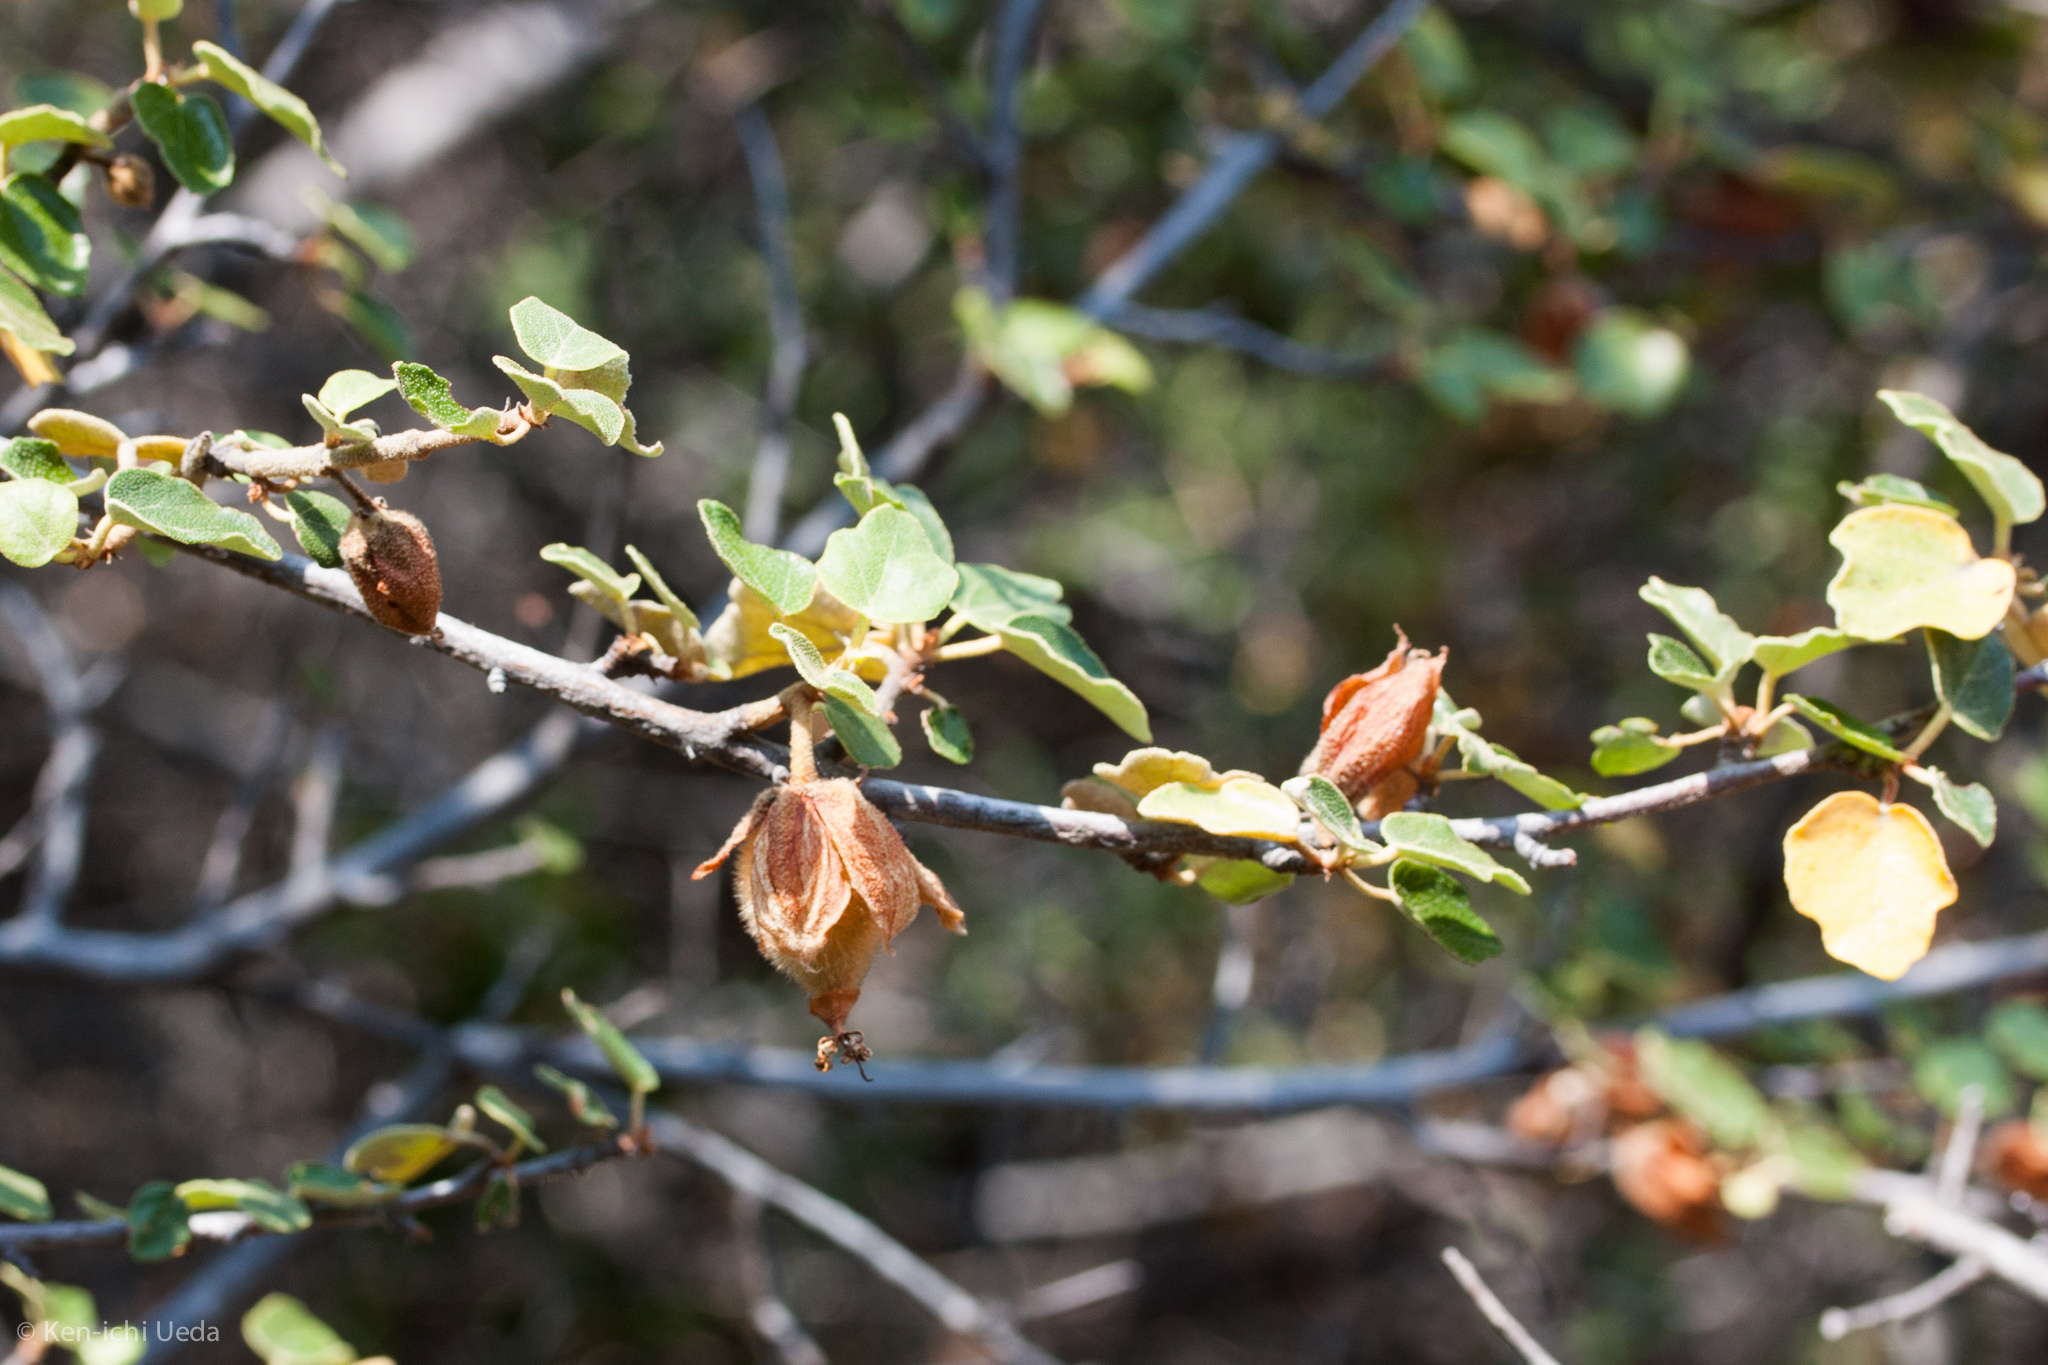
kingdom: Plantae
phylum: Tracheophyta
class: Magnoliopsida
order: Malvales
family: Malvaceae
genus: Fremontodendron
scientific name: Fremontodendron californicum
